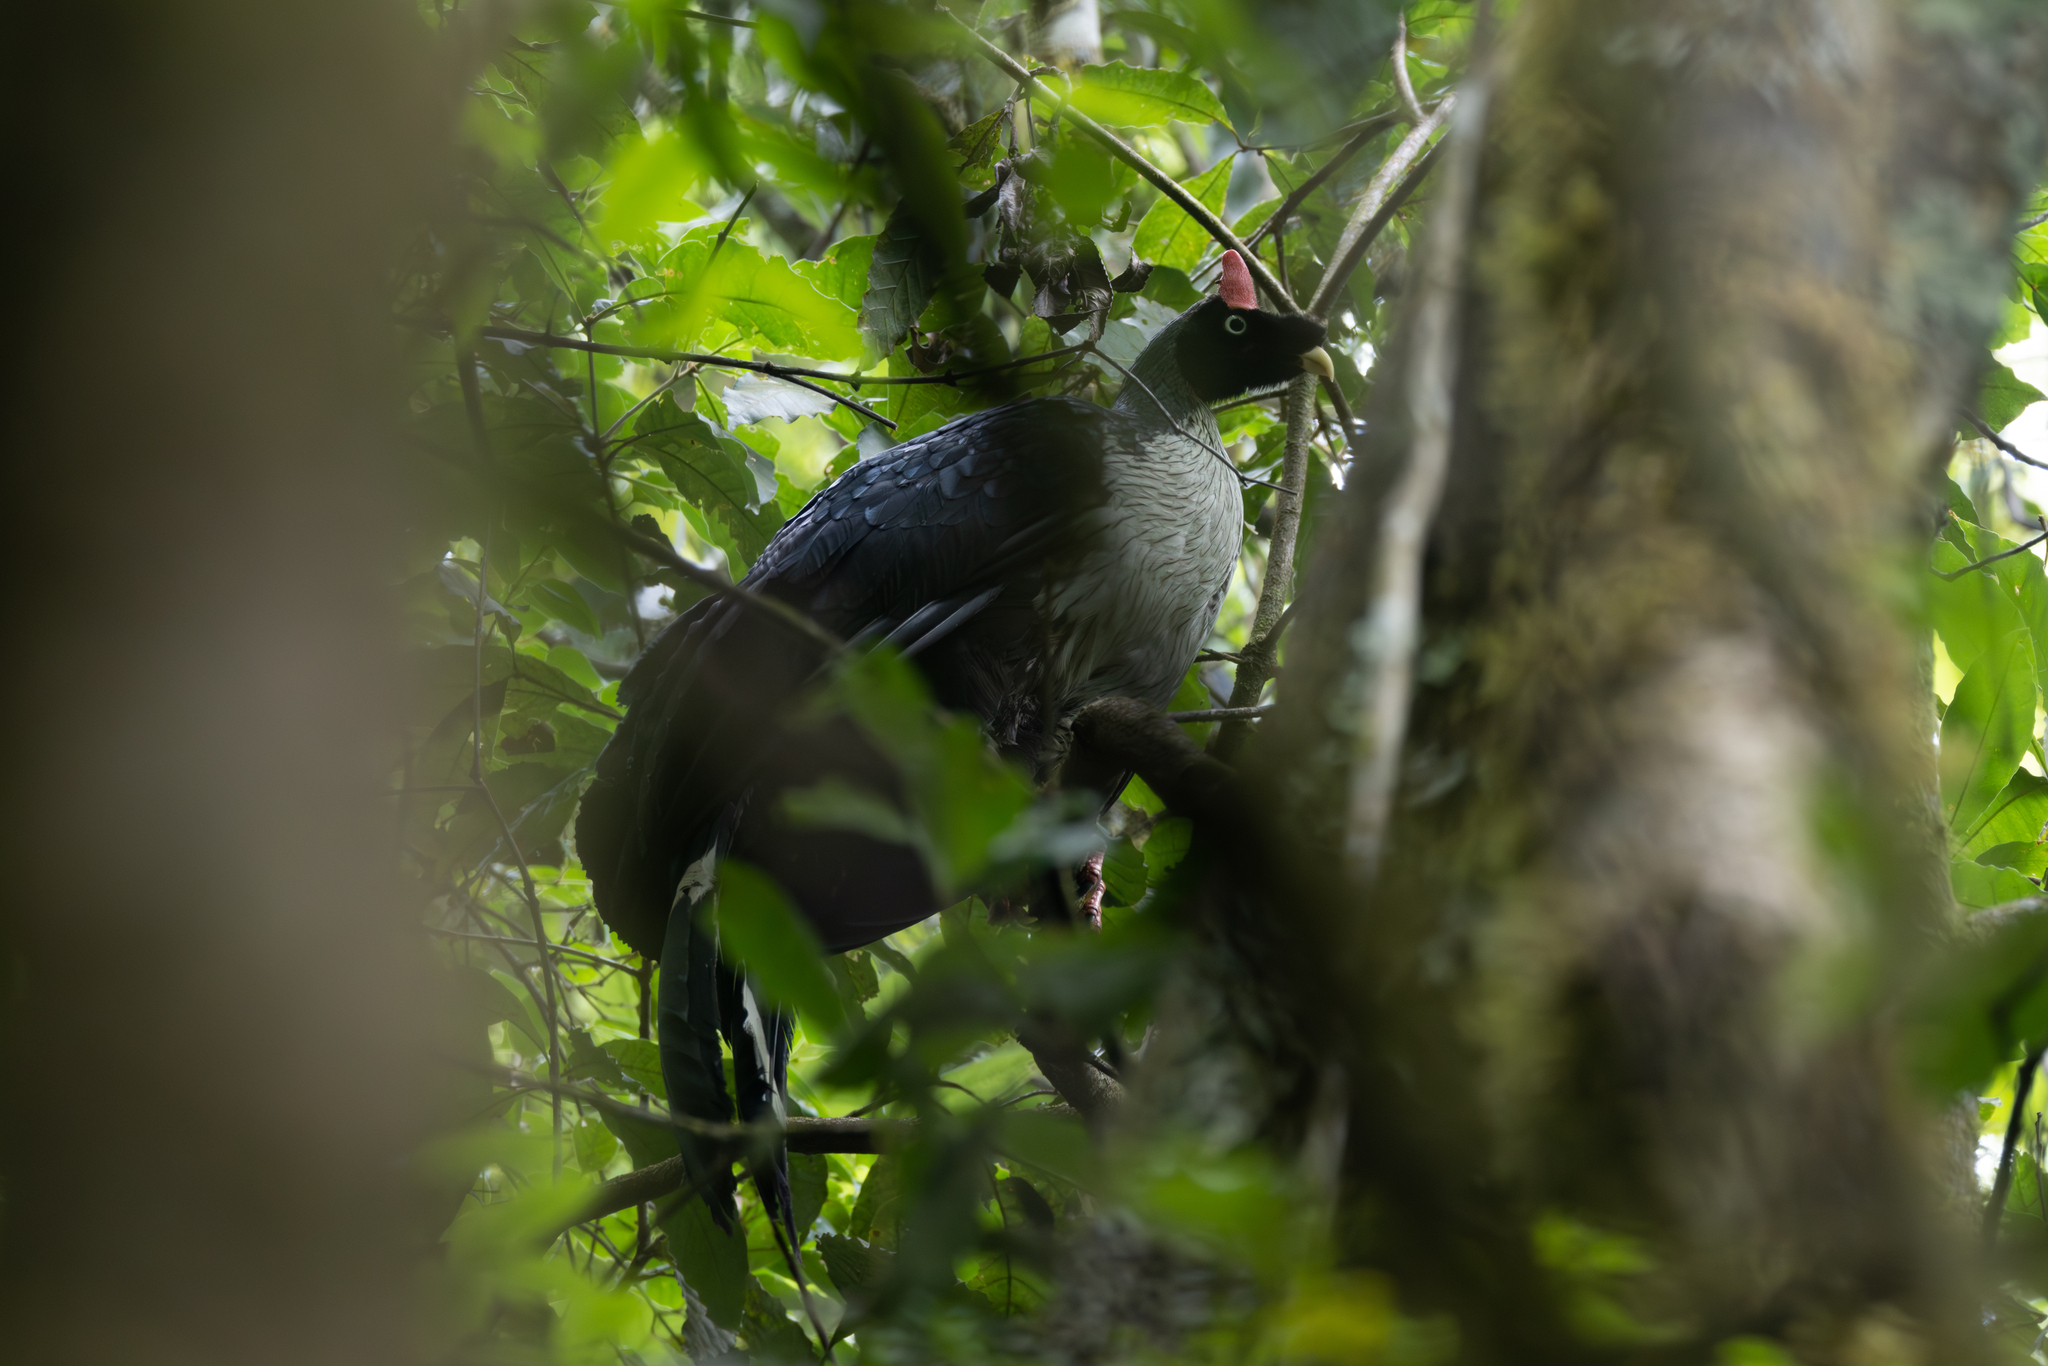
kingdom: Animalia
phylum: Chordata
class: Aves
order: Galliformes
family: Cracidae
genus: Oreophasis
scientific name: Oreophasis derbianus
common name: Horned guan
